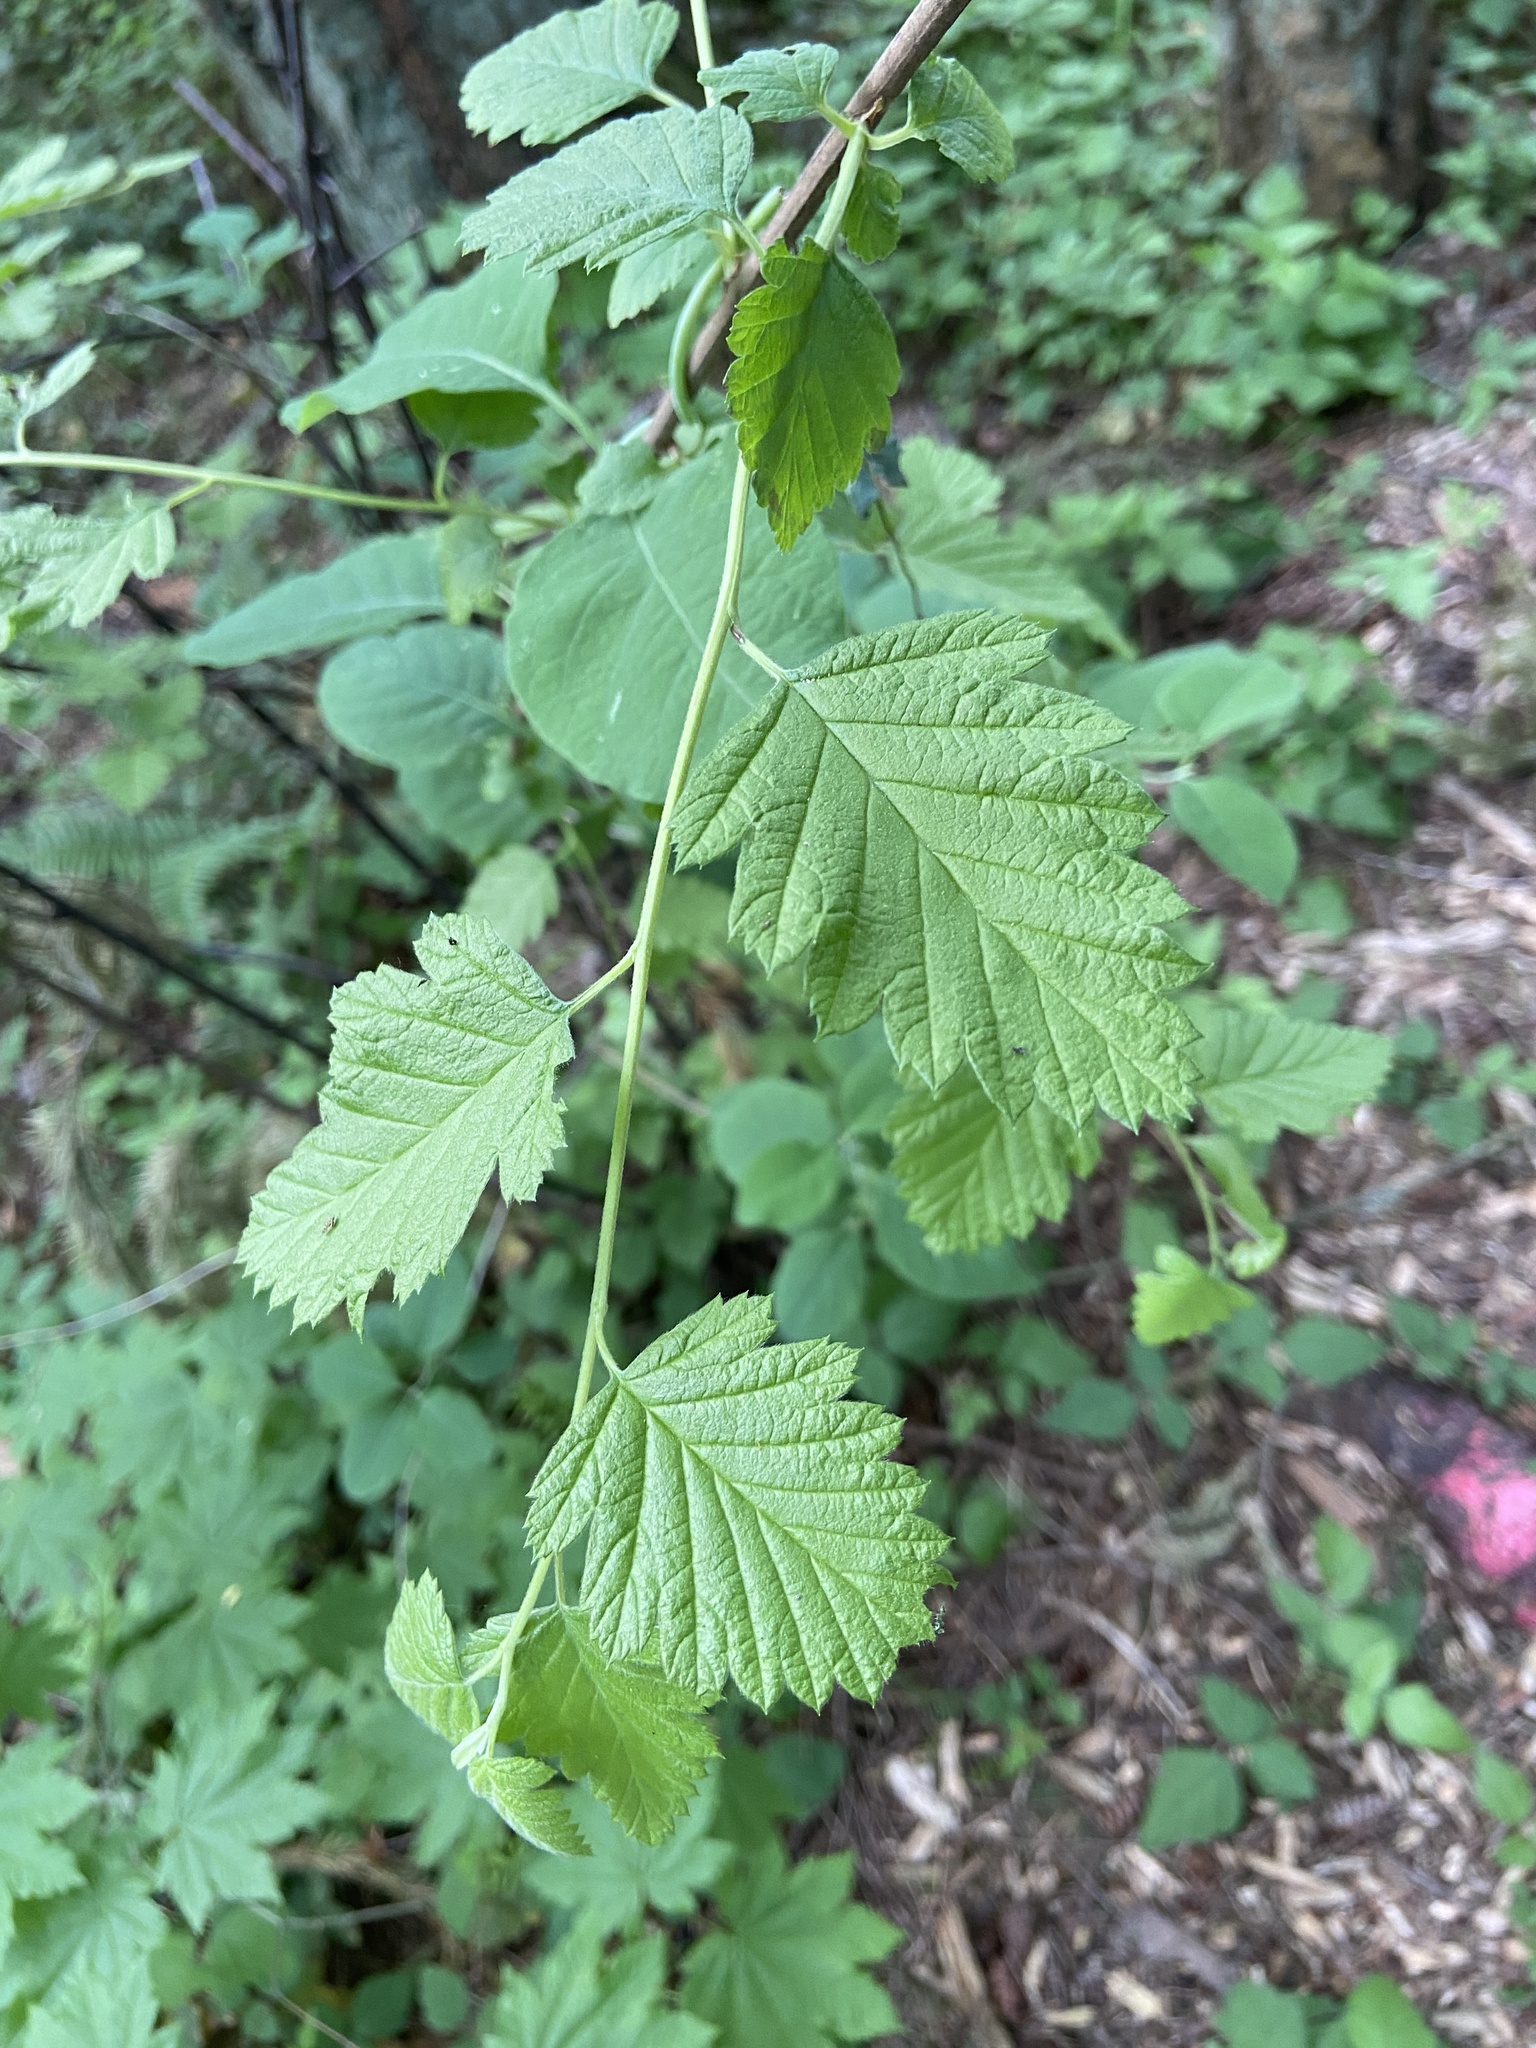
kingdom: Plantae
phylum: Tracheophyta
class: Magnoliopsida
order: Rosales
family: Rosaceae
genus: Holodiscus
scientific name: Holodiscus discolor
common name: Oceanspray
